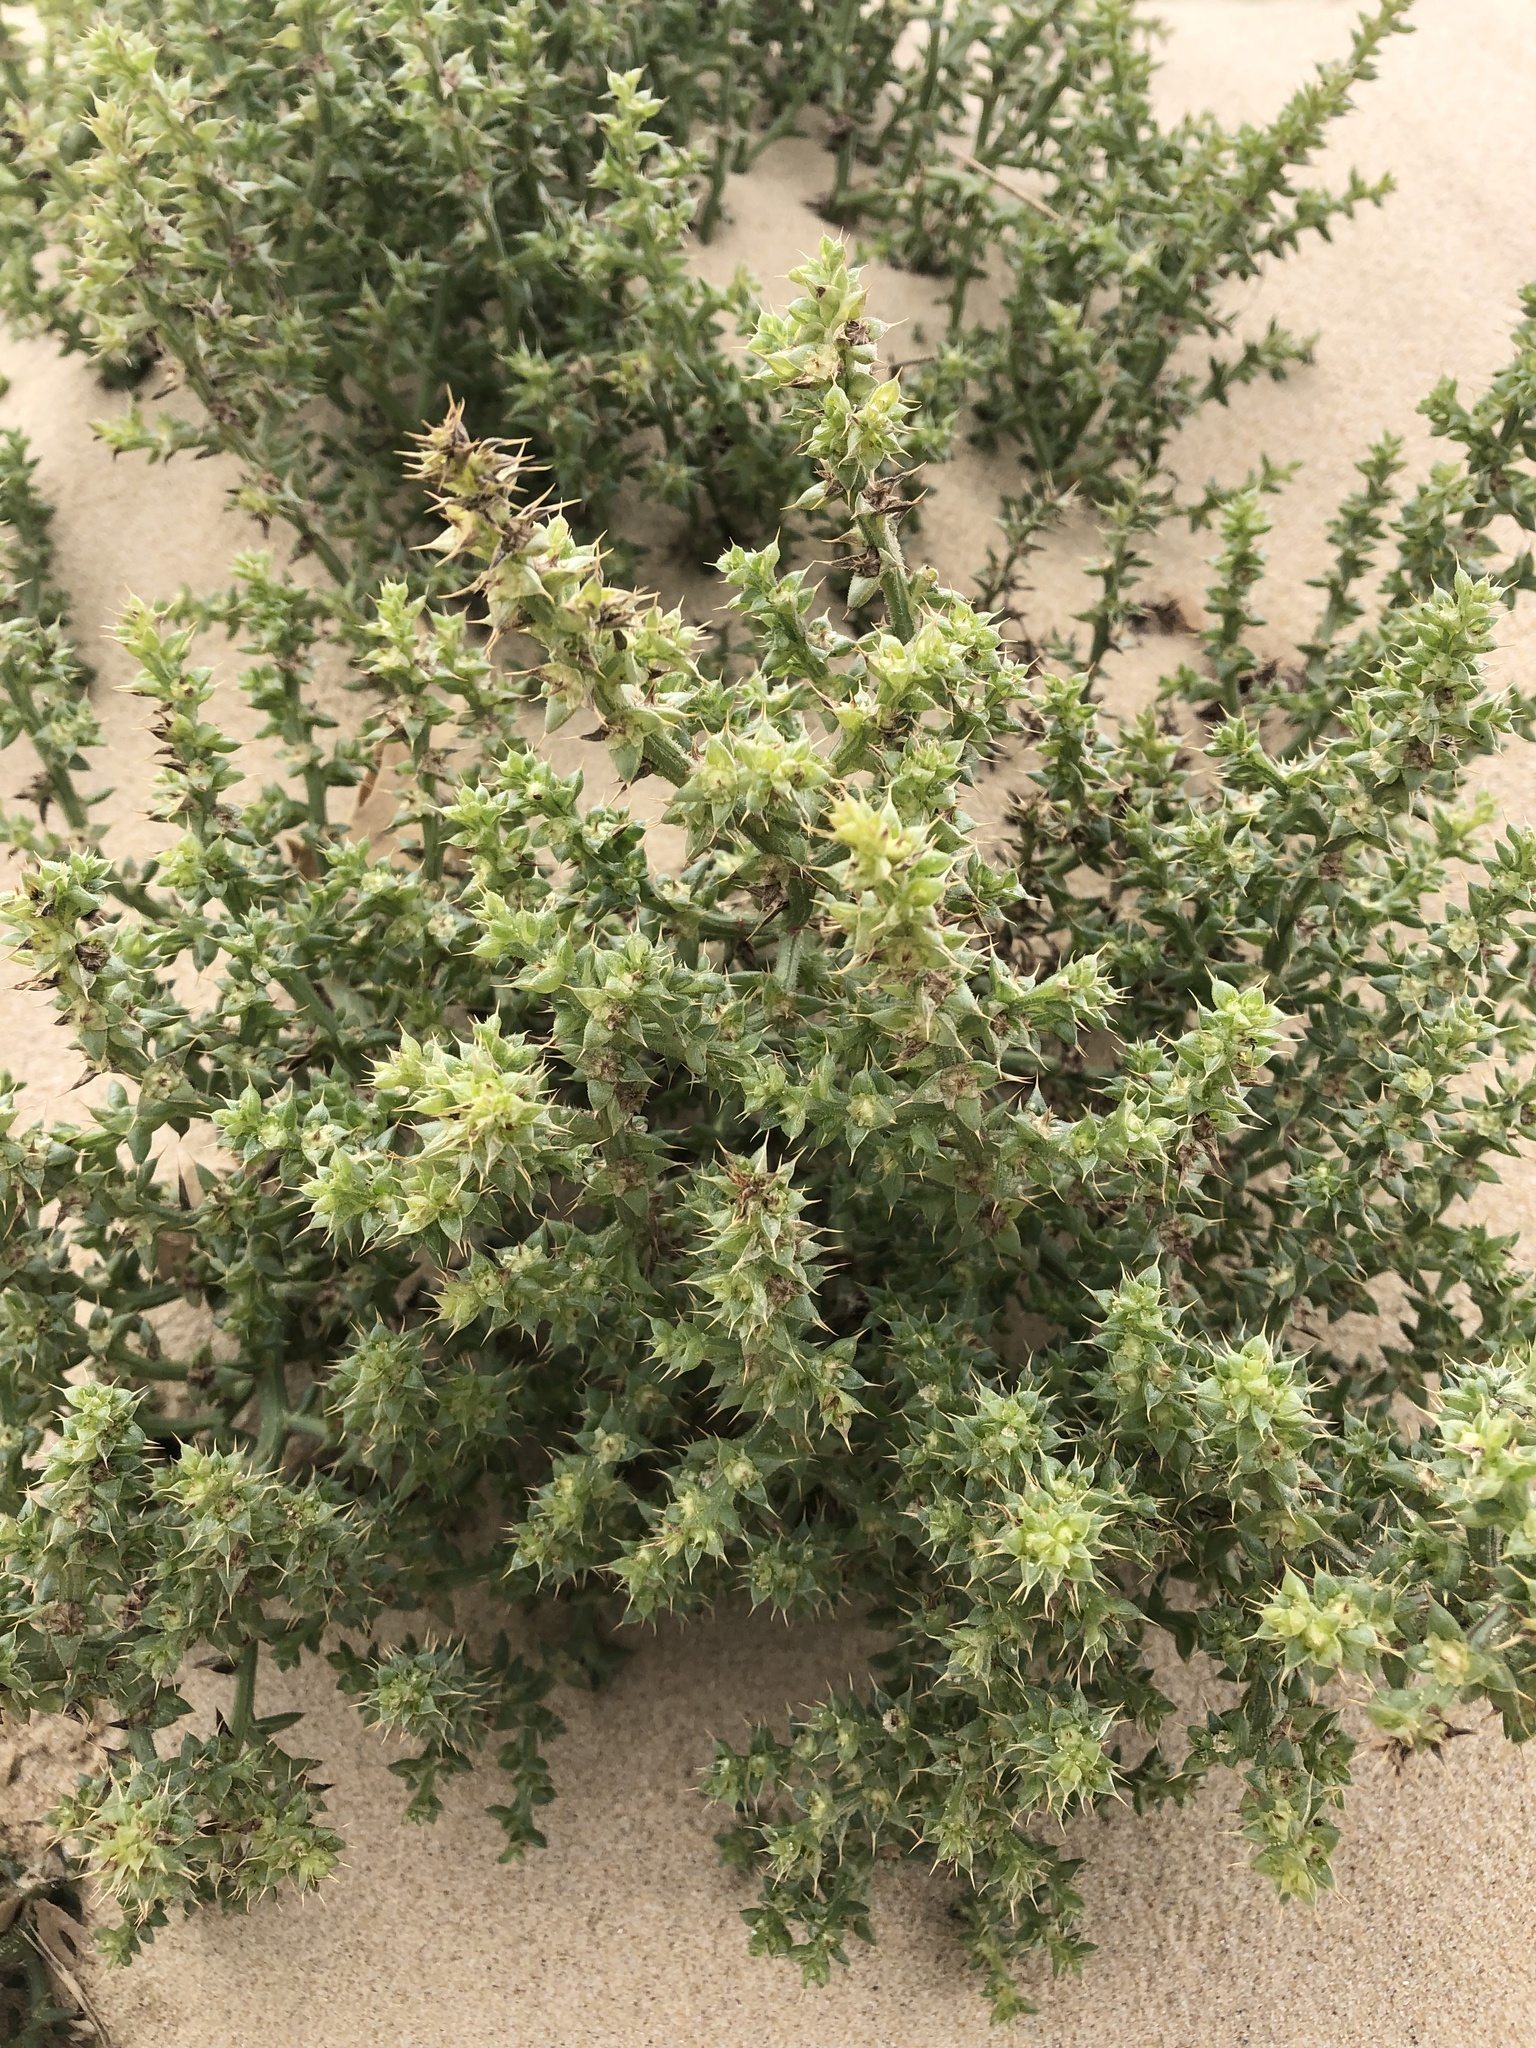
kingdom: Plantae
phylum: Tracheophyta
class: Magnoliopsida
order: Caryophyllales
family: Amaranthaceae
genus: Salsola
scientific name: Salsola kali
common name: Saltwort
